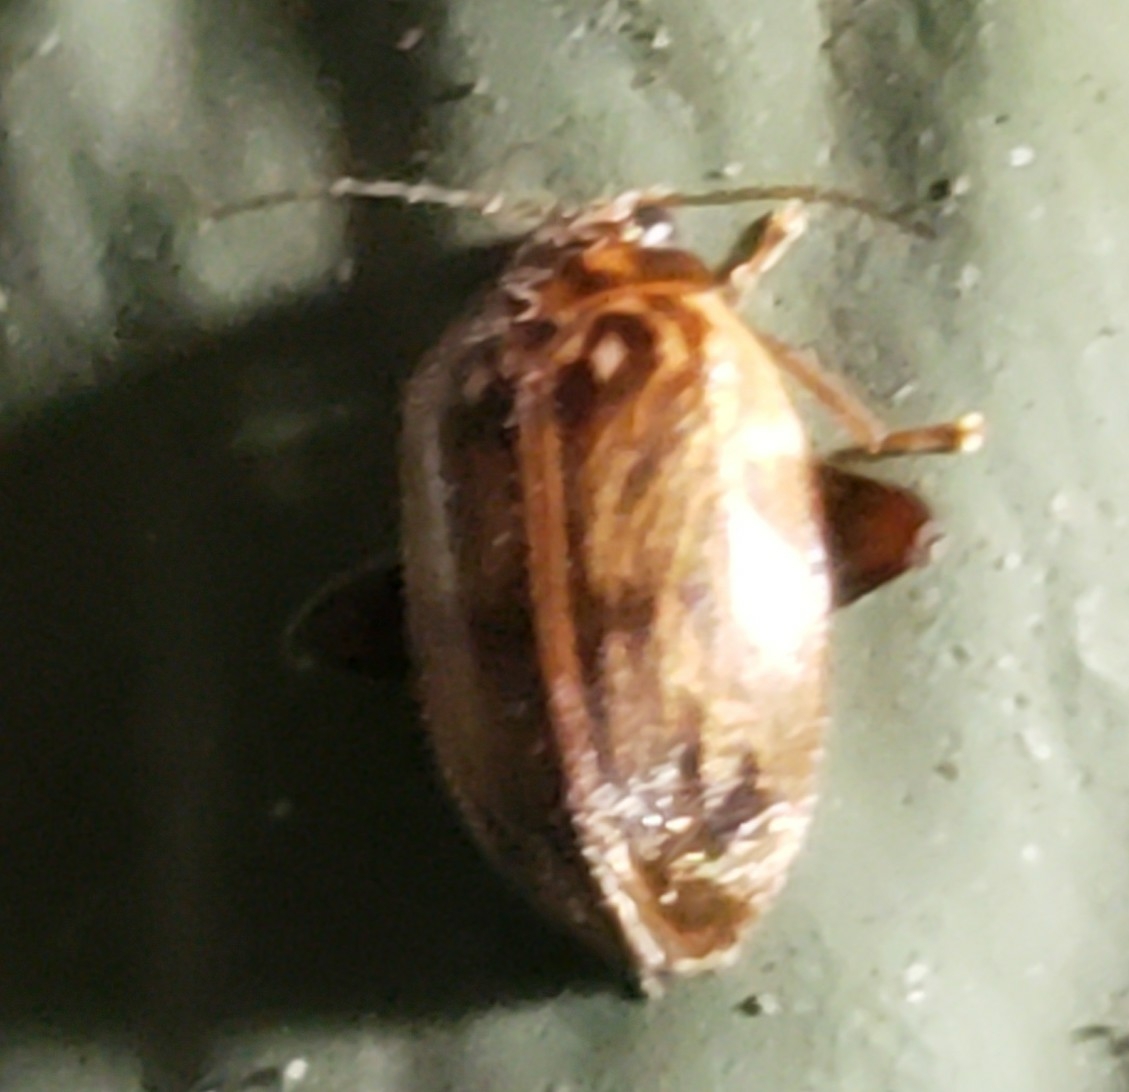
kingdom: Animalia
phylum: Arthropoda
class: Insecta
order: Coleoptera
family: Scirtidae
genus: Ora
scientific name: Ora texana
